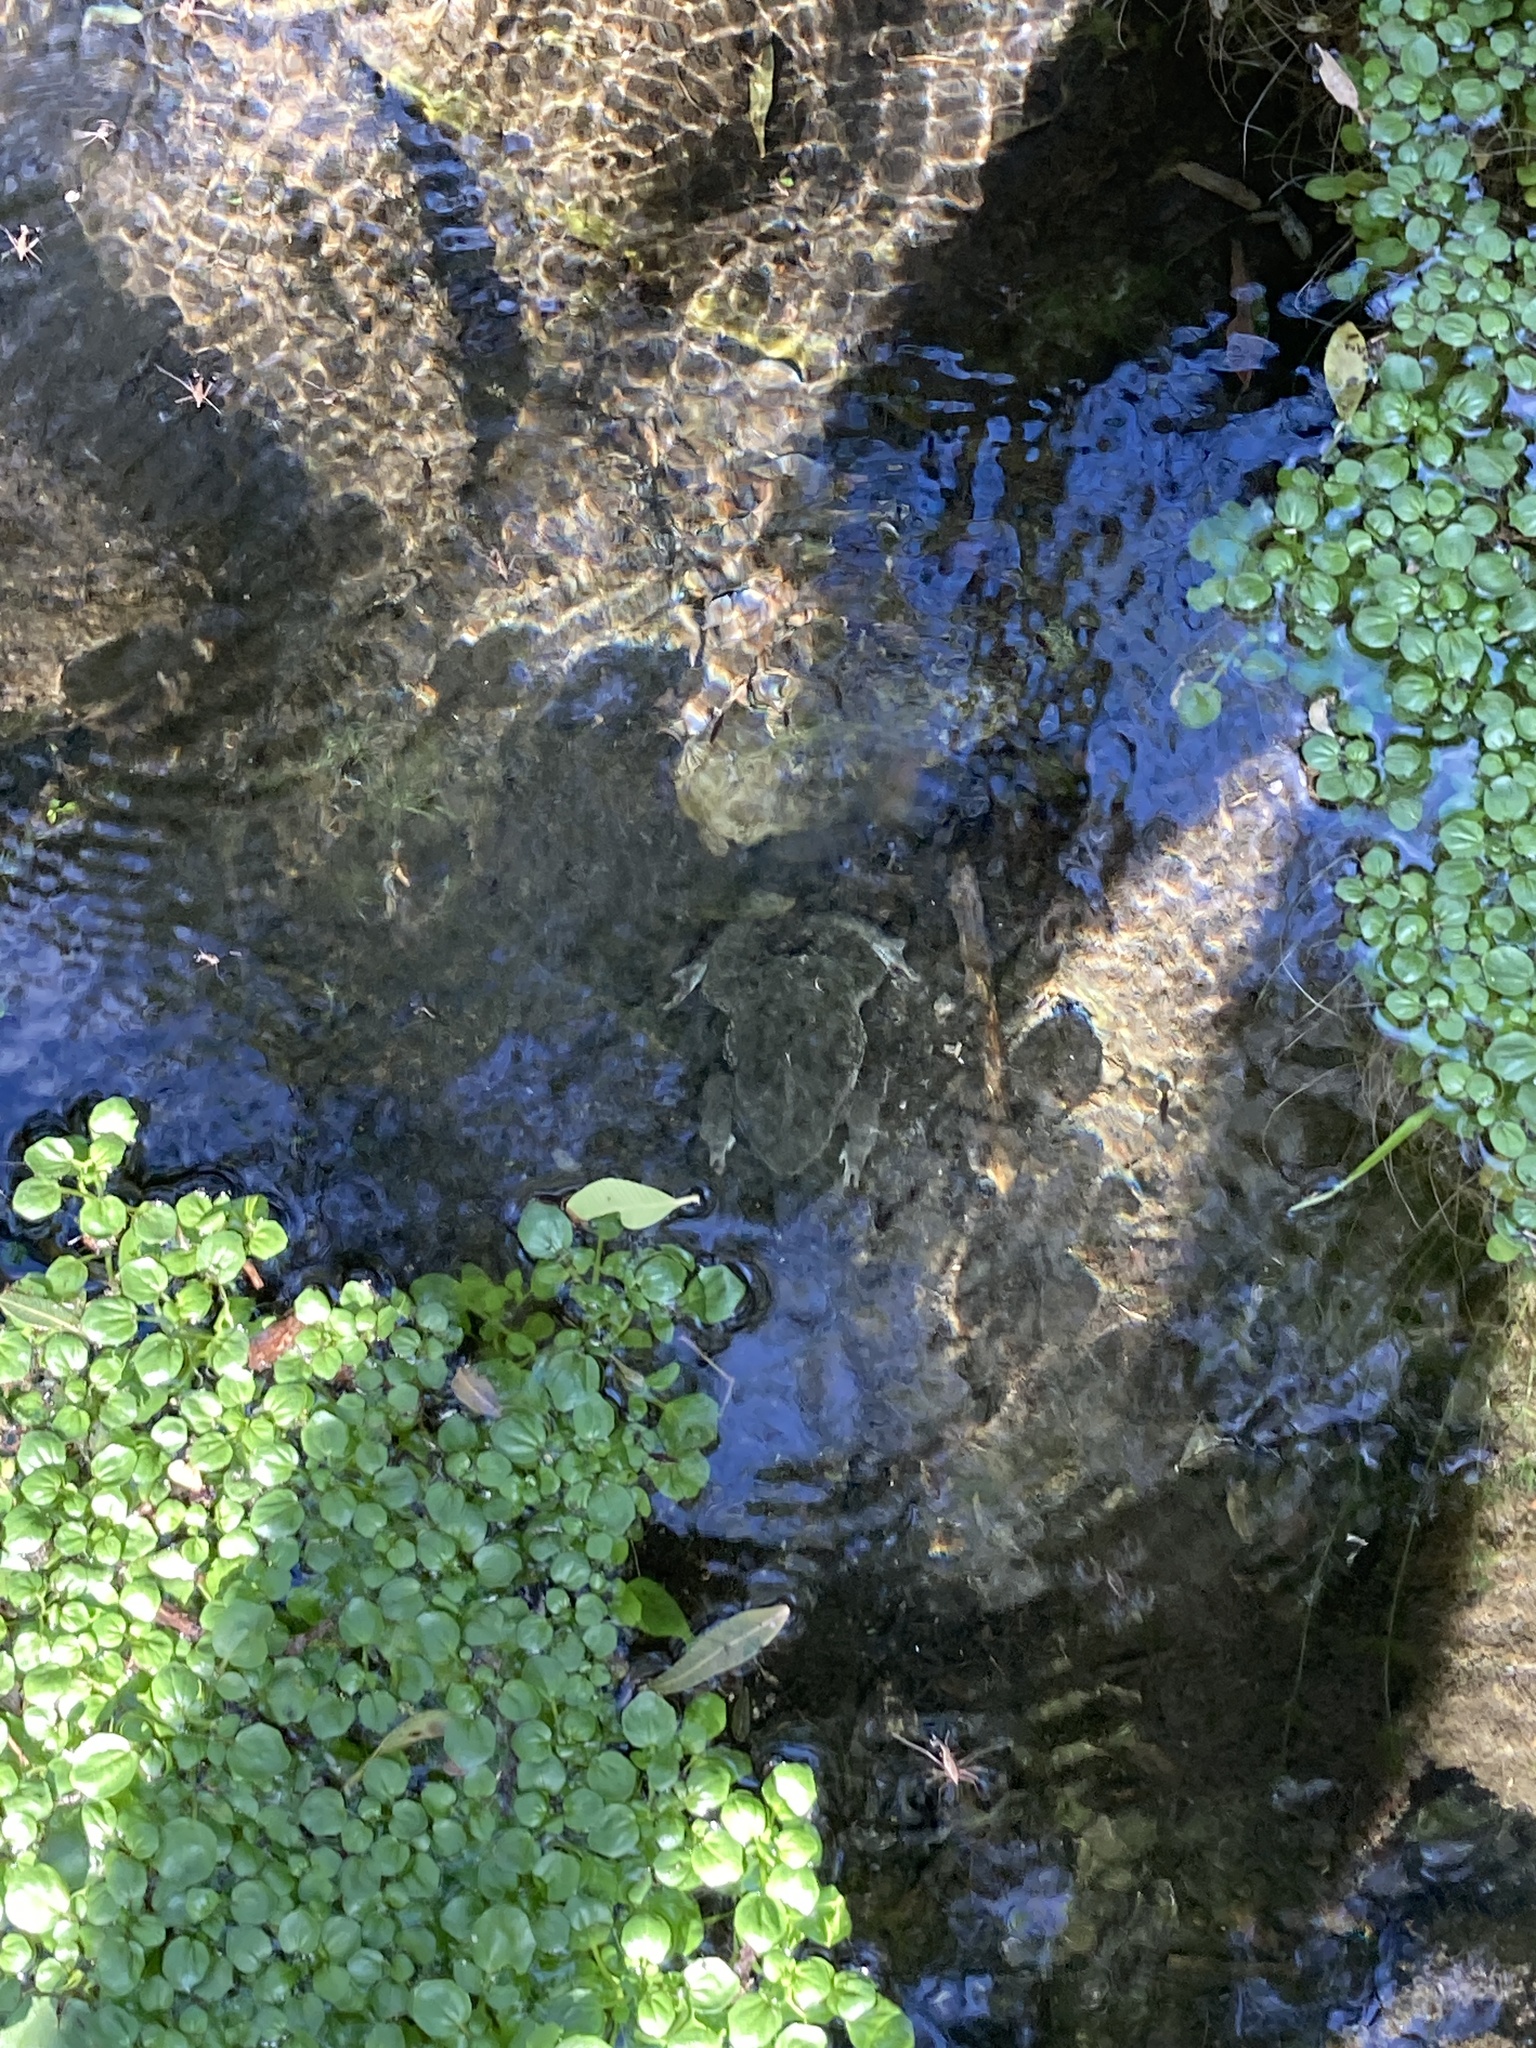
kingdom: Animalia
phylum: Chordata
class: Amphibia
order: Anura
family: Bufonidae
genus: Rhinella
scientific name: Rhinella arenarum
